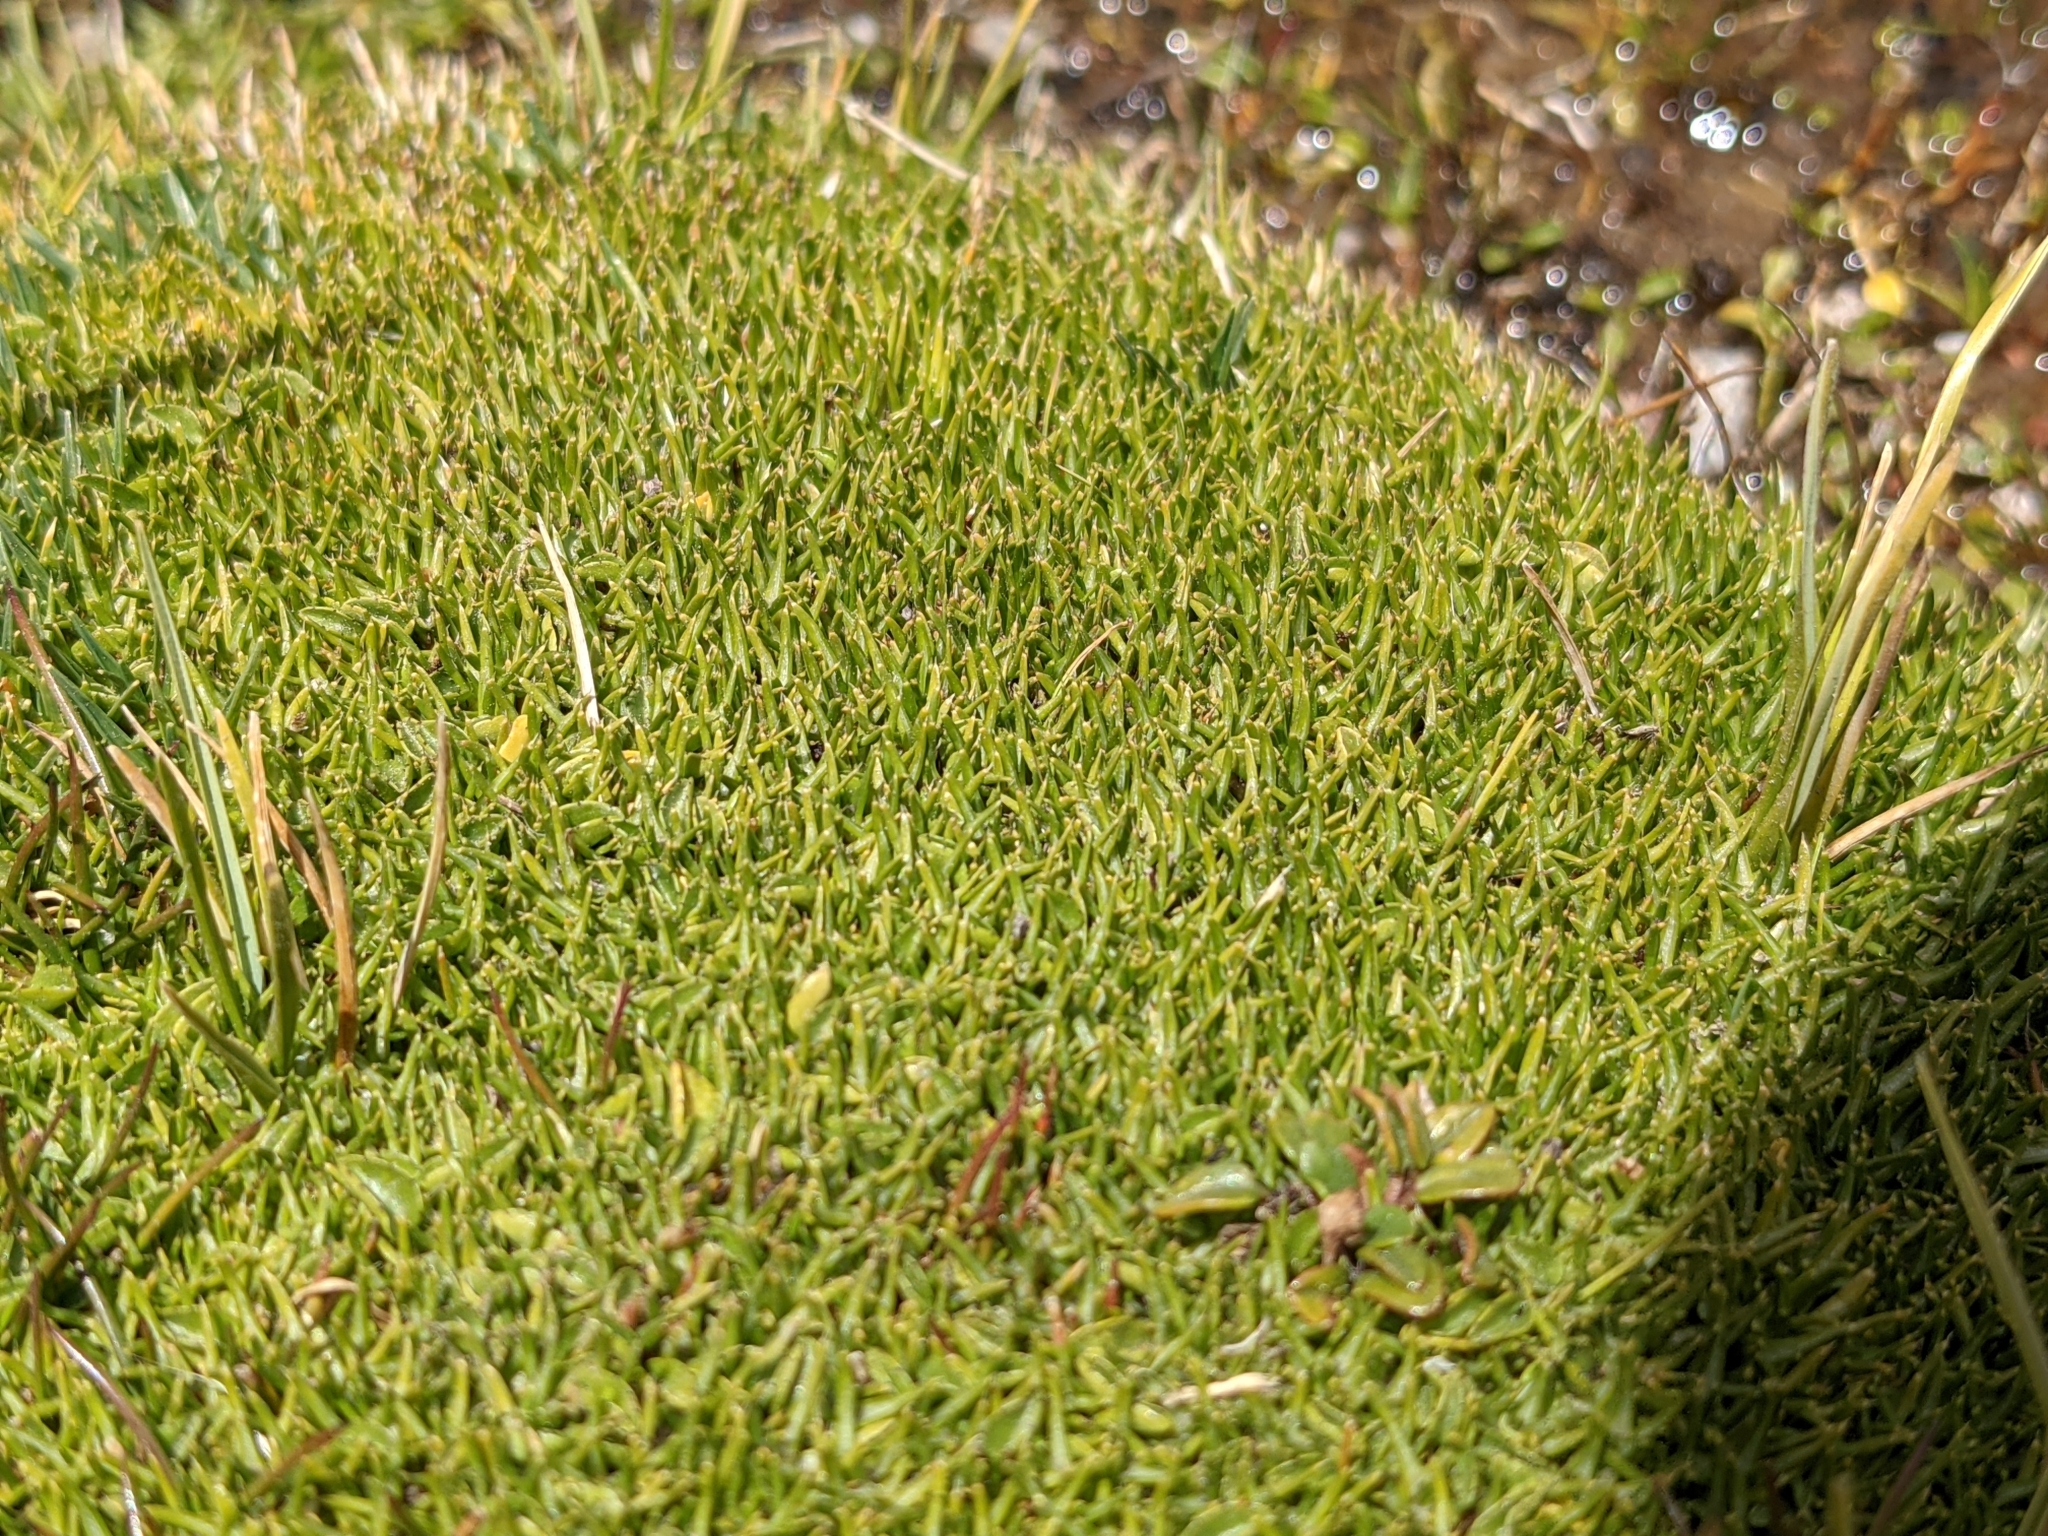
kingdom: Plantae
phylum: Tracheophyta
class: Liliopsida
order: Poales
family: Juncaceae
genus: Oxychloe
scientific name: Oxychloe andina
